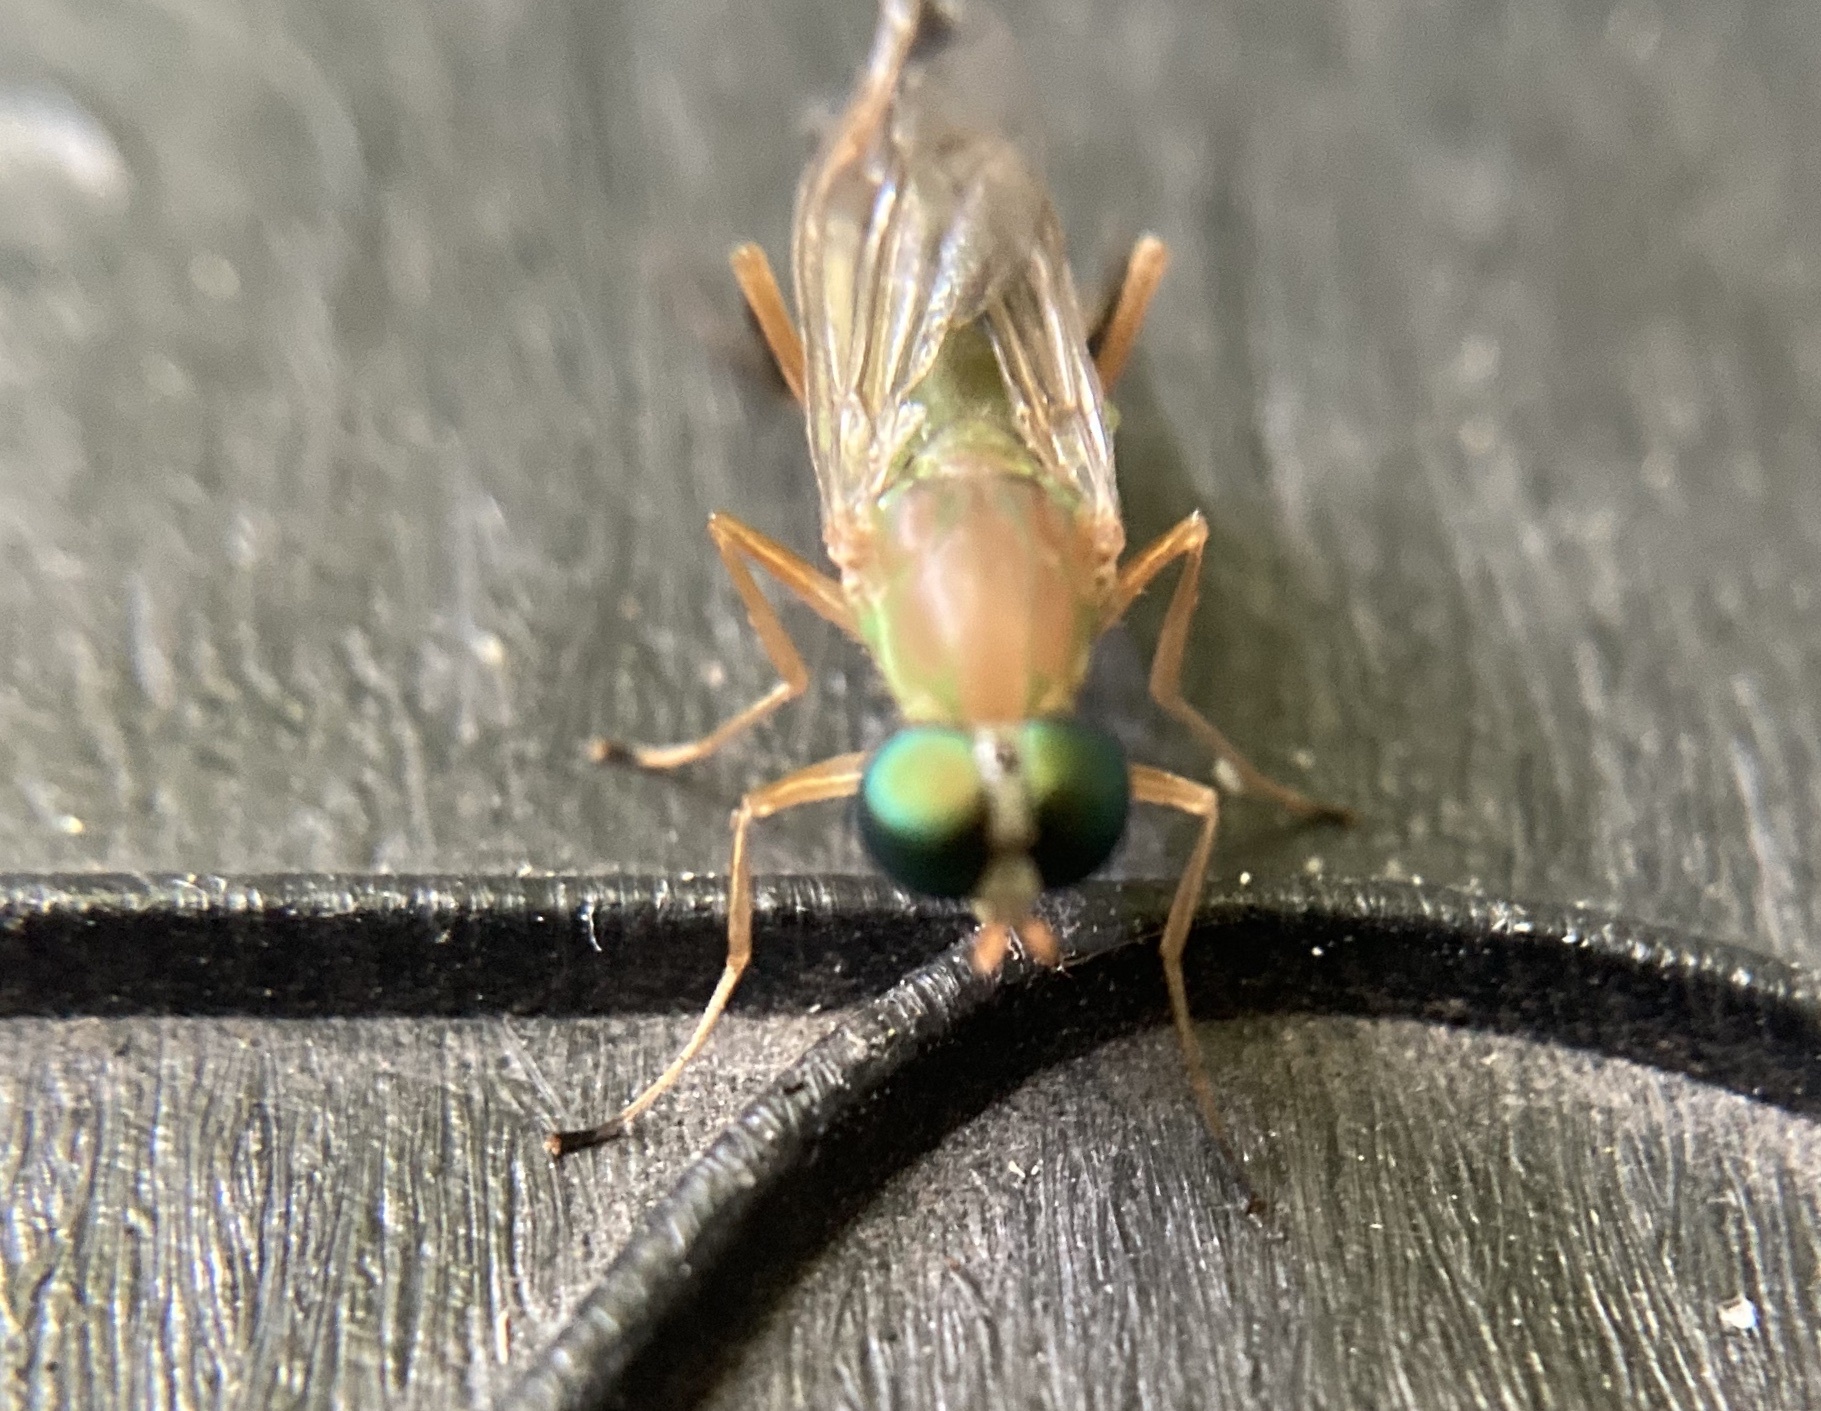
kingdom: Animalia
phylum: Arthropoda
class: Insecta
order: Diptera
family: Stratiomyidae
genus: Ptecticus
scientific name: Ptecticus trivittatus
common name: Compost fly
